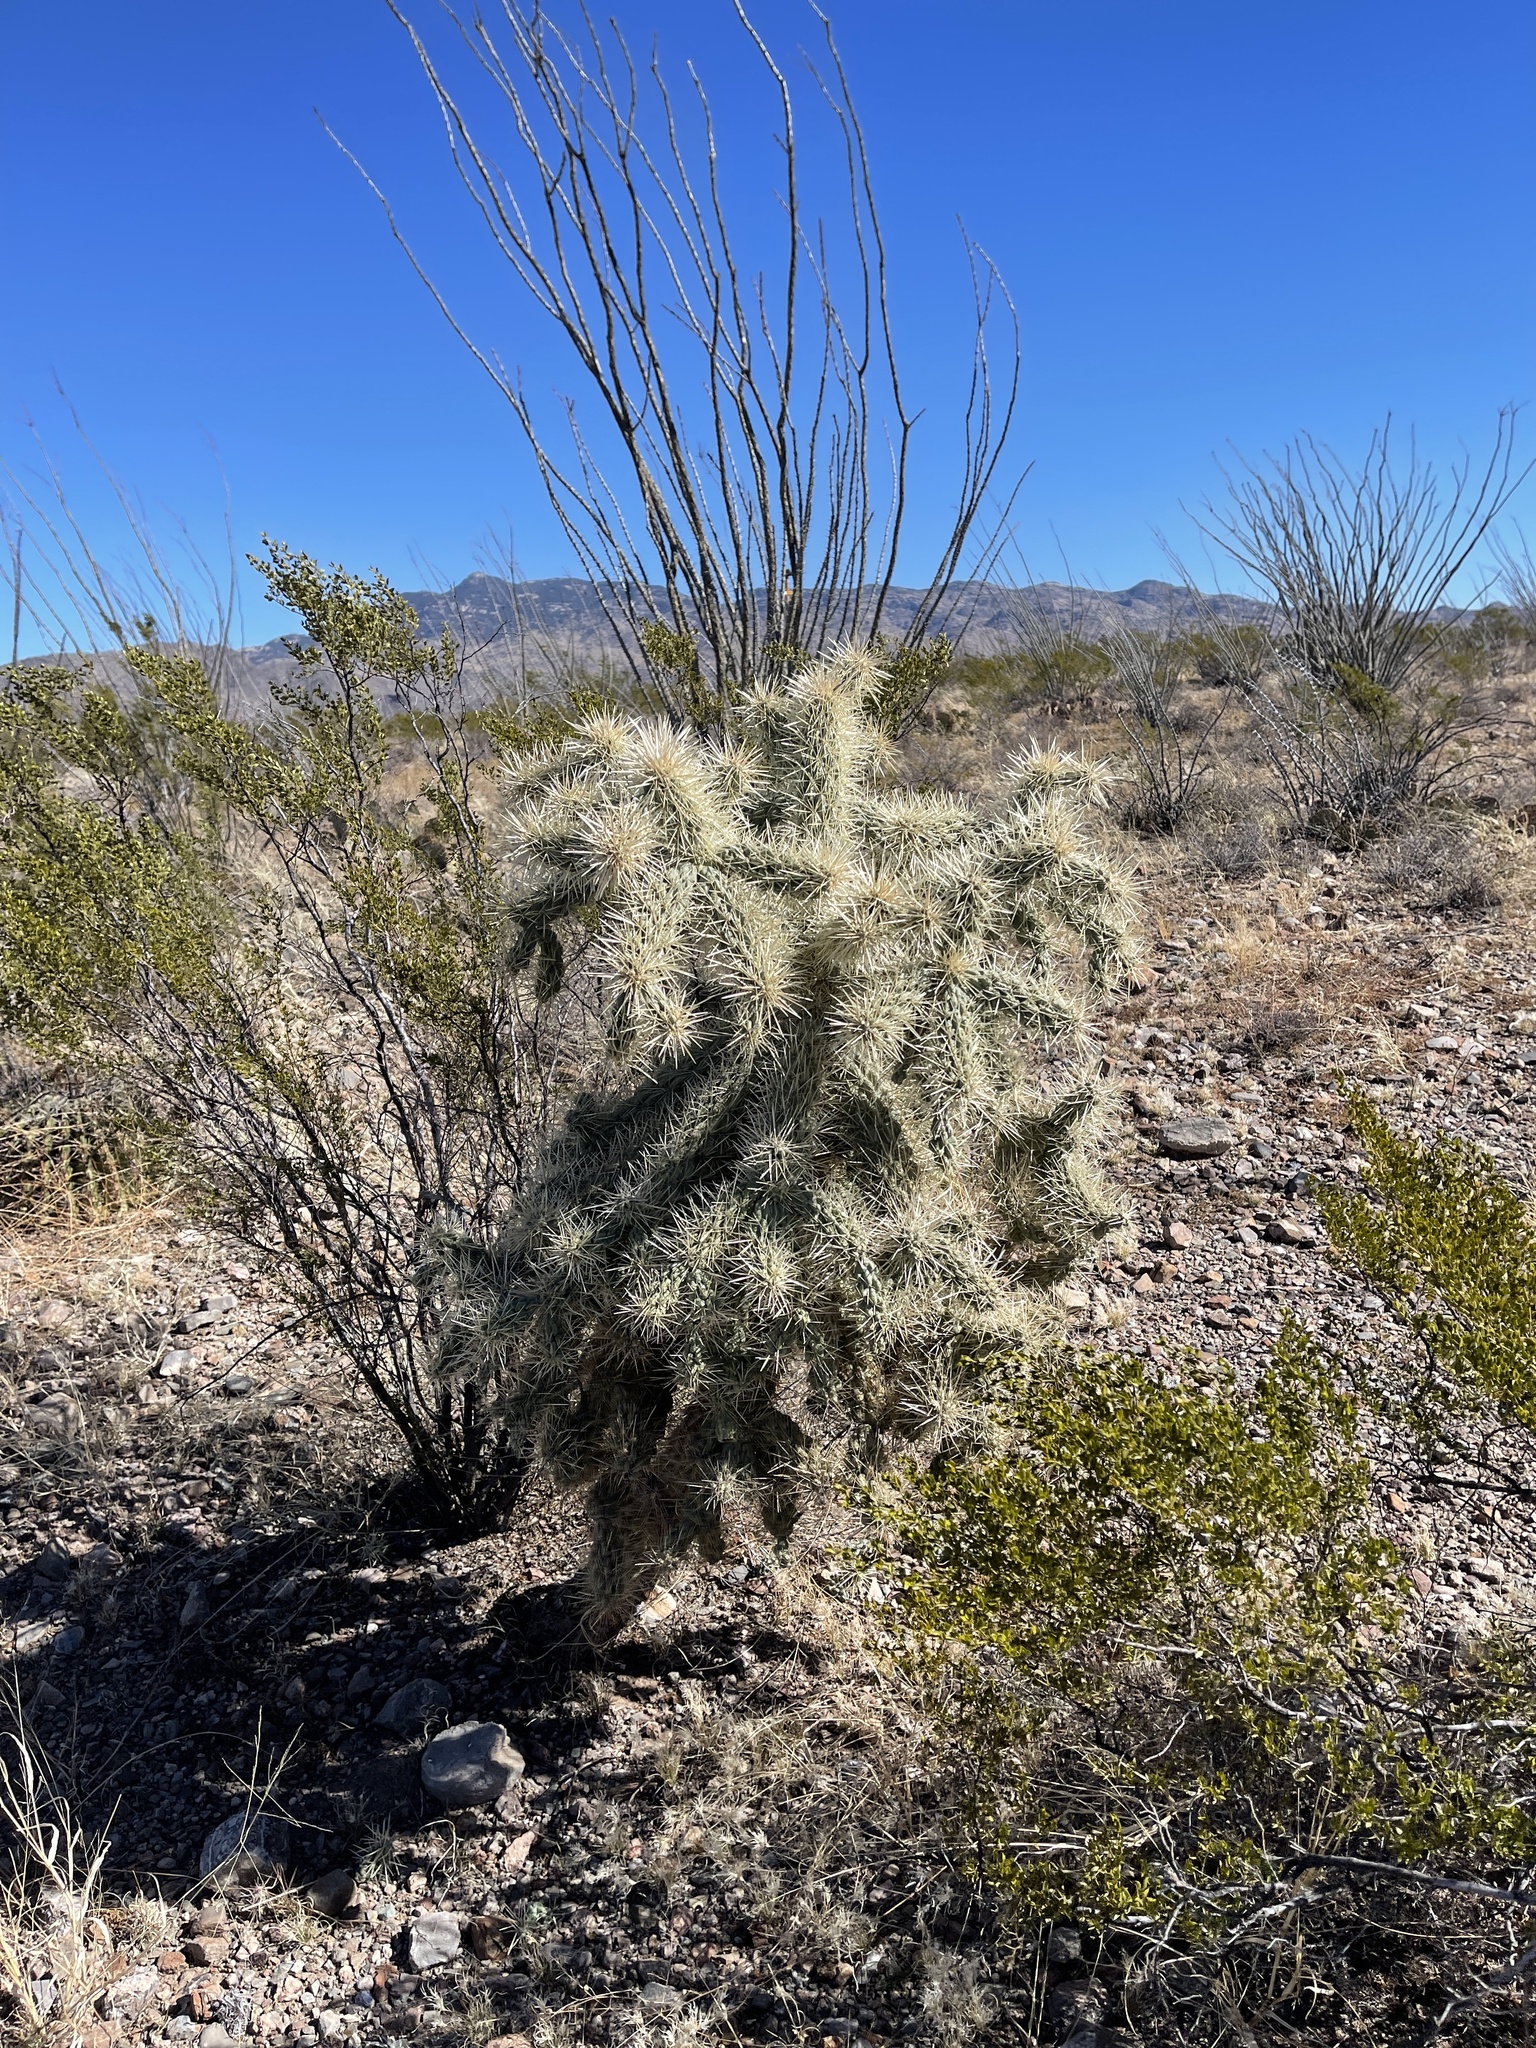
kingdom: Plantae
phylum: Tracheophyta
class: Magnoliopsida
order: Caryophyllales
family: Cactaceae
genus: Cylindropuntia
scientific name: Cylindropuntia fulgida
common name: Jumping cholla
